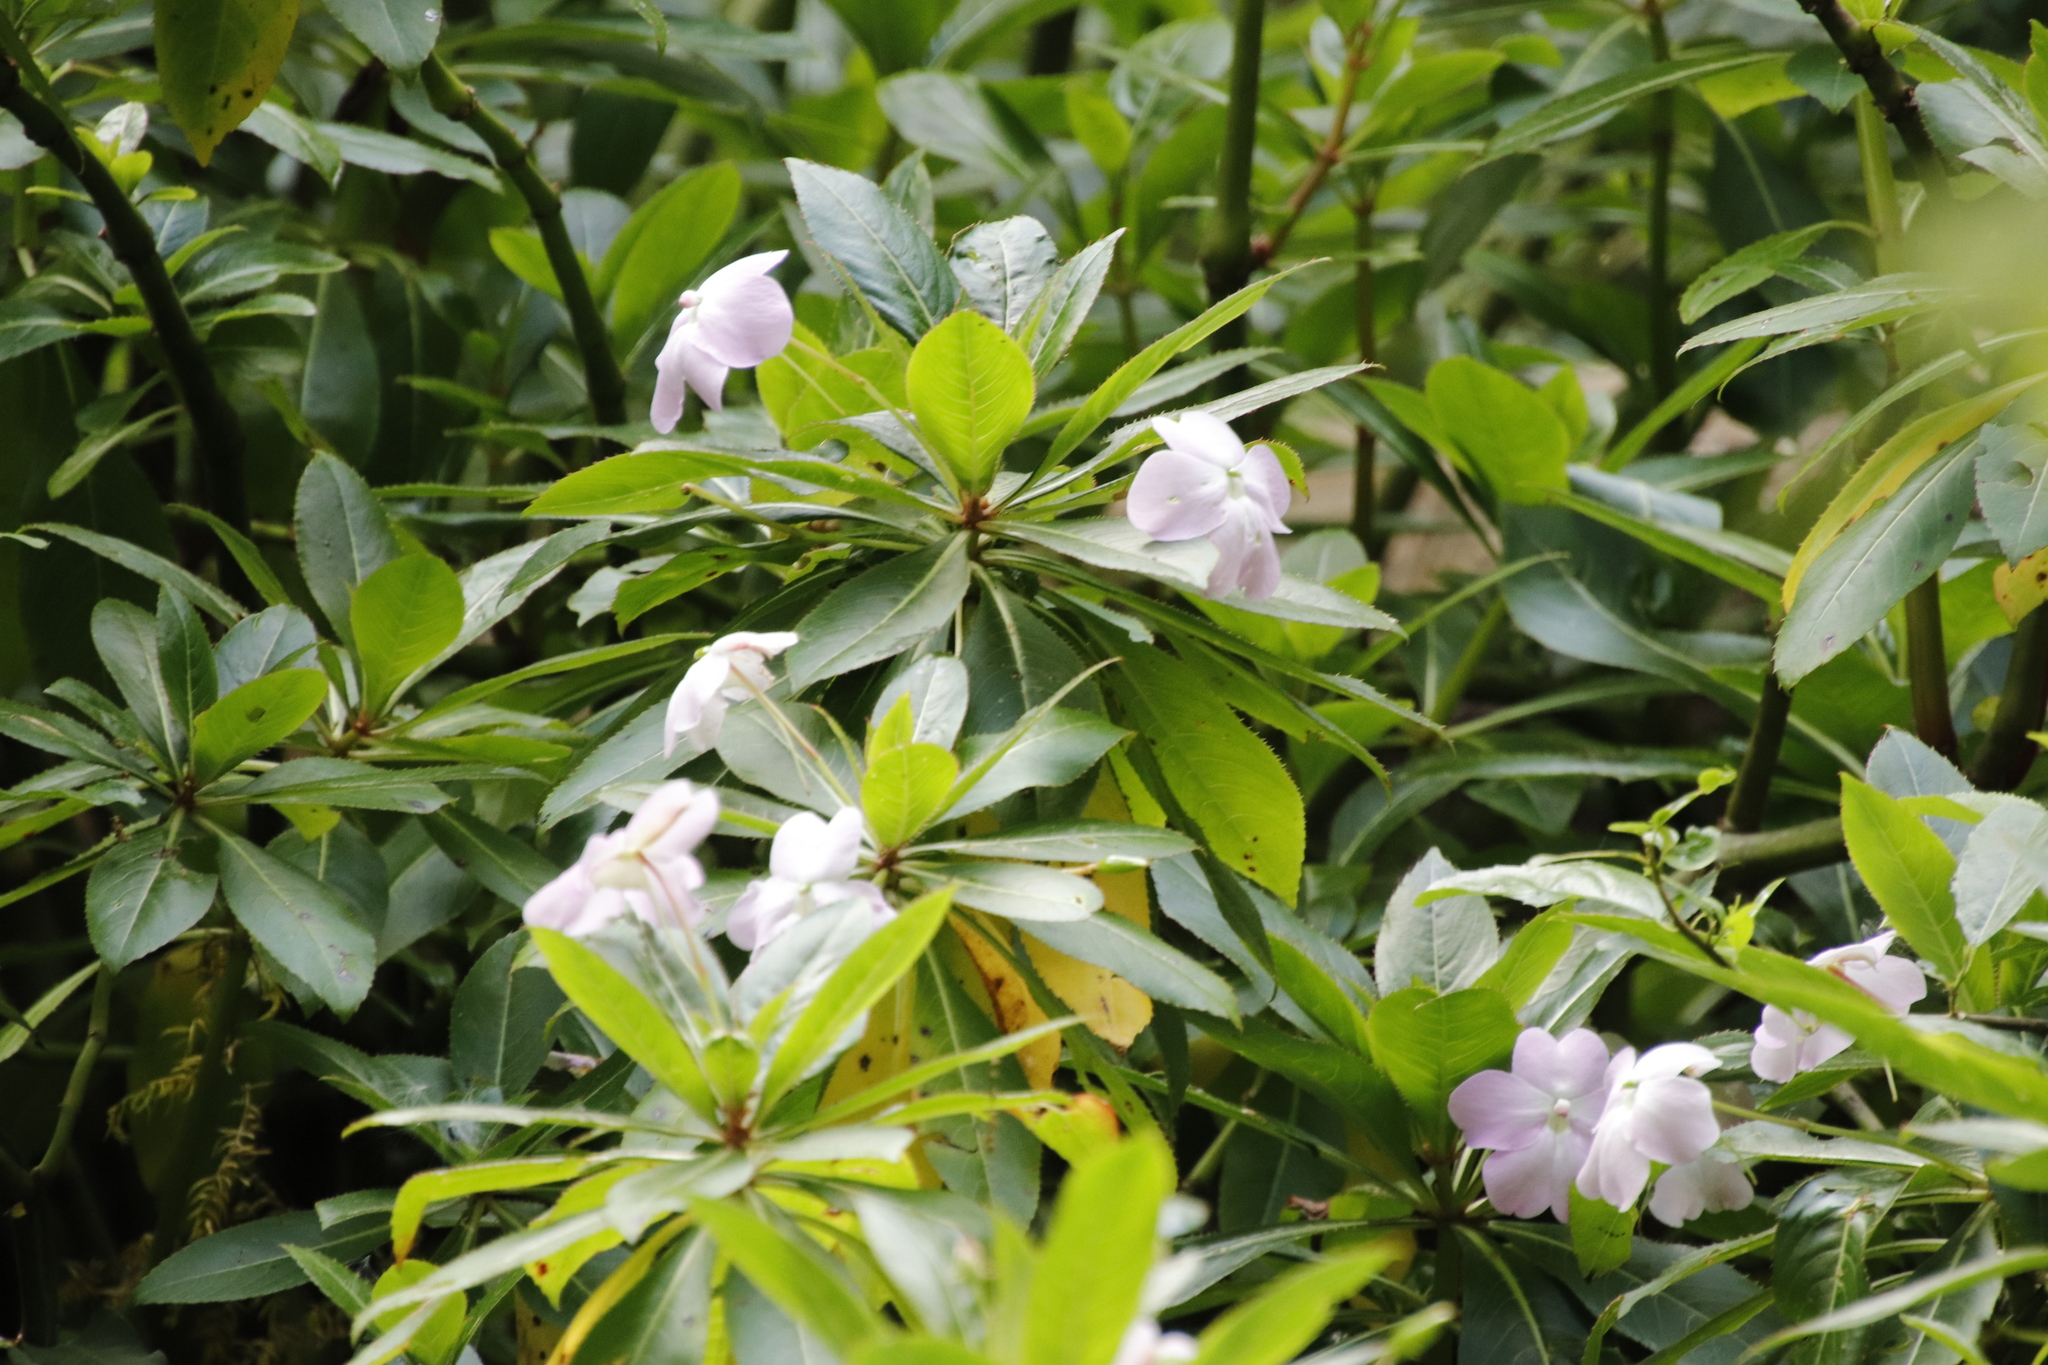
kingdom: Plantae
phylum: Tracheophyta
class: Magnoliopsida
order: Ericales
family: Balsaminaceae
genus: Impatiens
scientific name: Impatiens sodenii
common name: Oliver's touch-me-not
